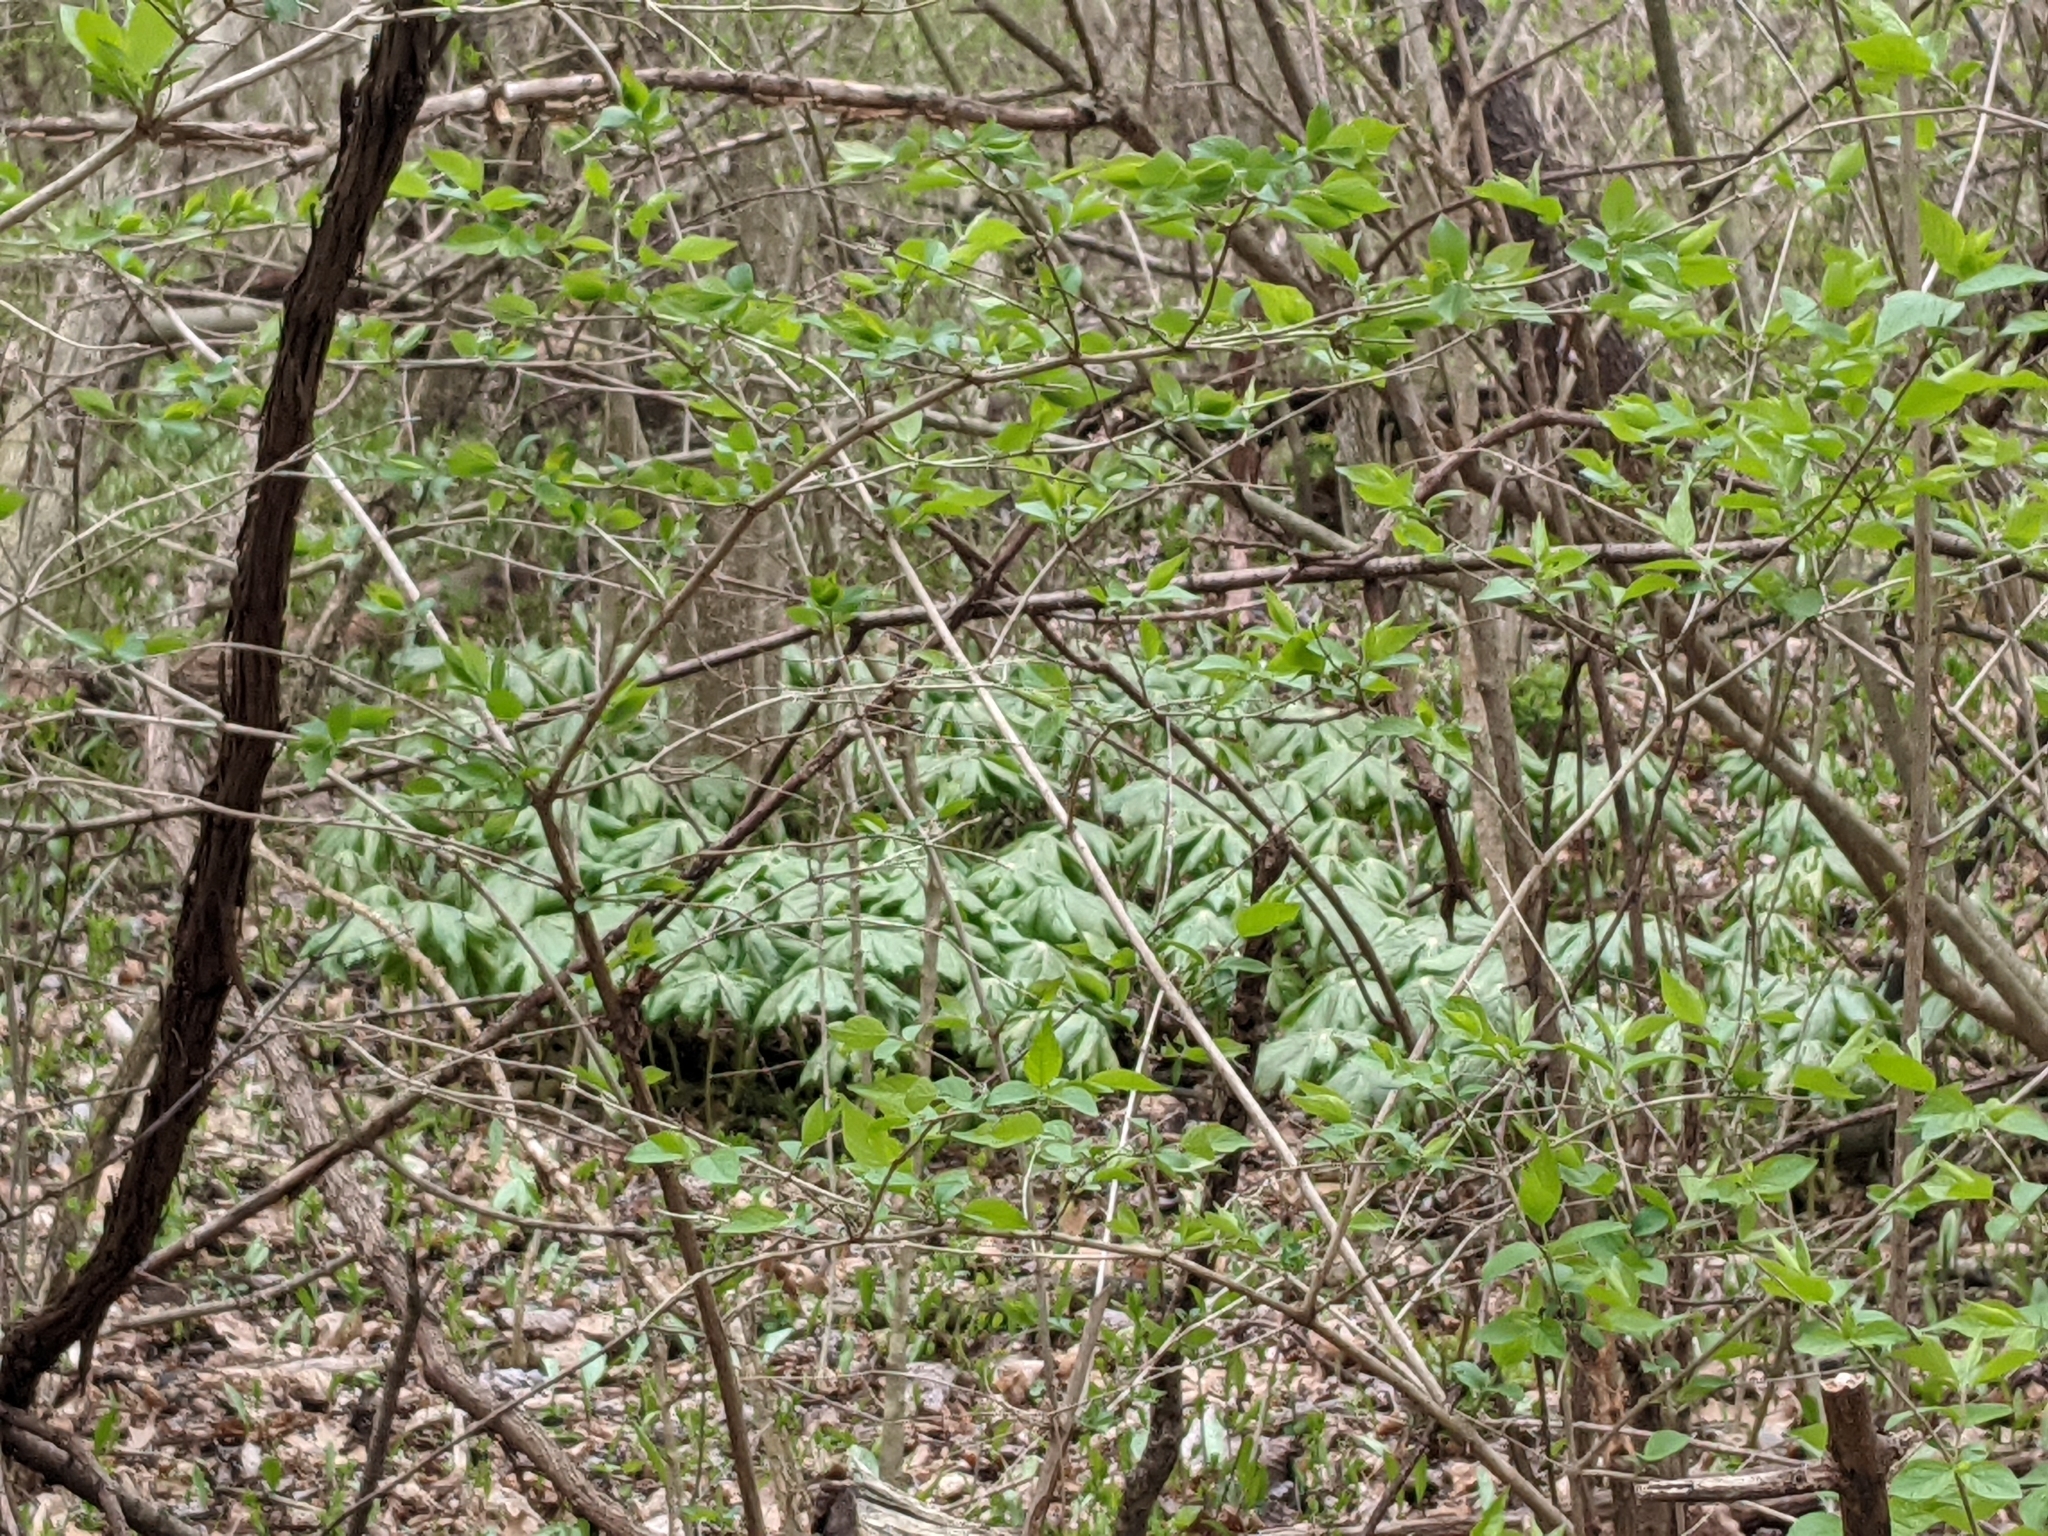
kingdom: Plantae
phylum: Tracheophyta
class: Magnoliopsida
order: Ranunculales
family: Berberidaceae
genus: Podophyllum
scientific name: Podophyllum peltatum
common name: Wild mandrake
